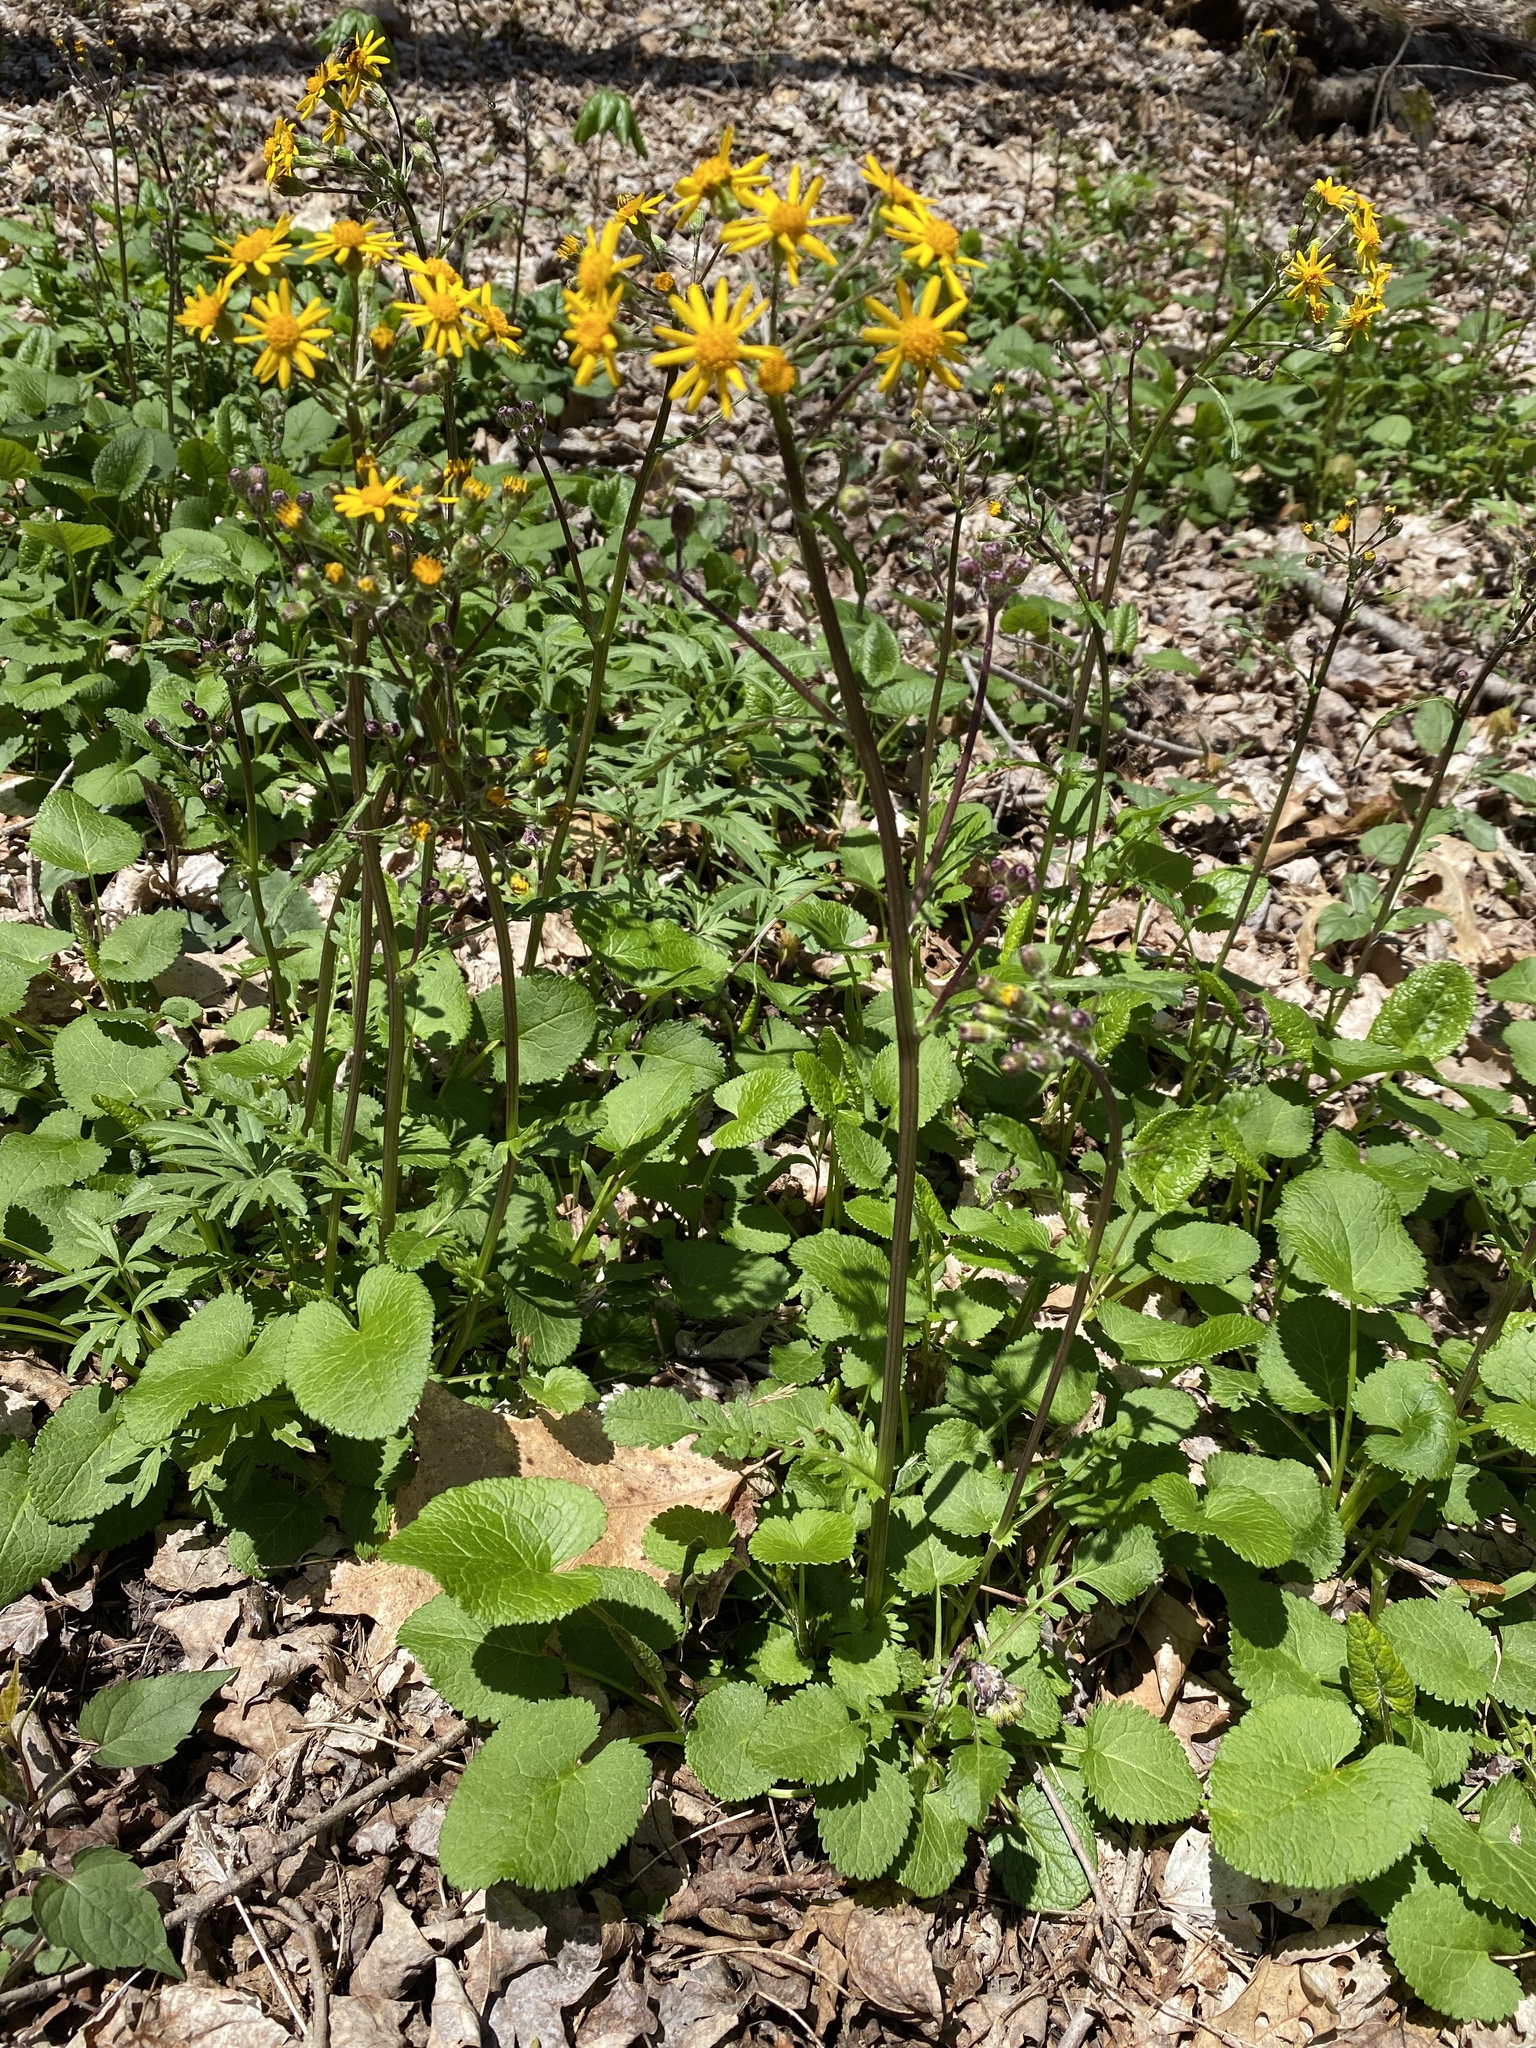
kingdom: Plantae
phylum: Tracheophyta
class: Magnoliopsida
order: Asterales
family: Asteraceae
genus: Packera
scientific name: Packera aurea
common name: Golden groundsel
